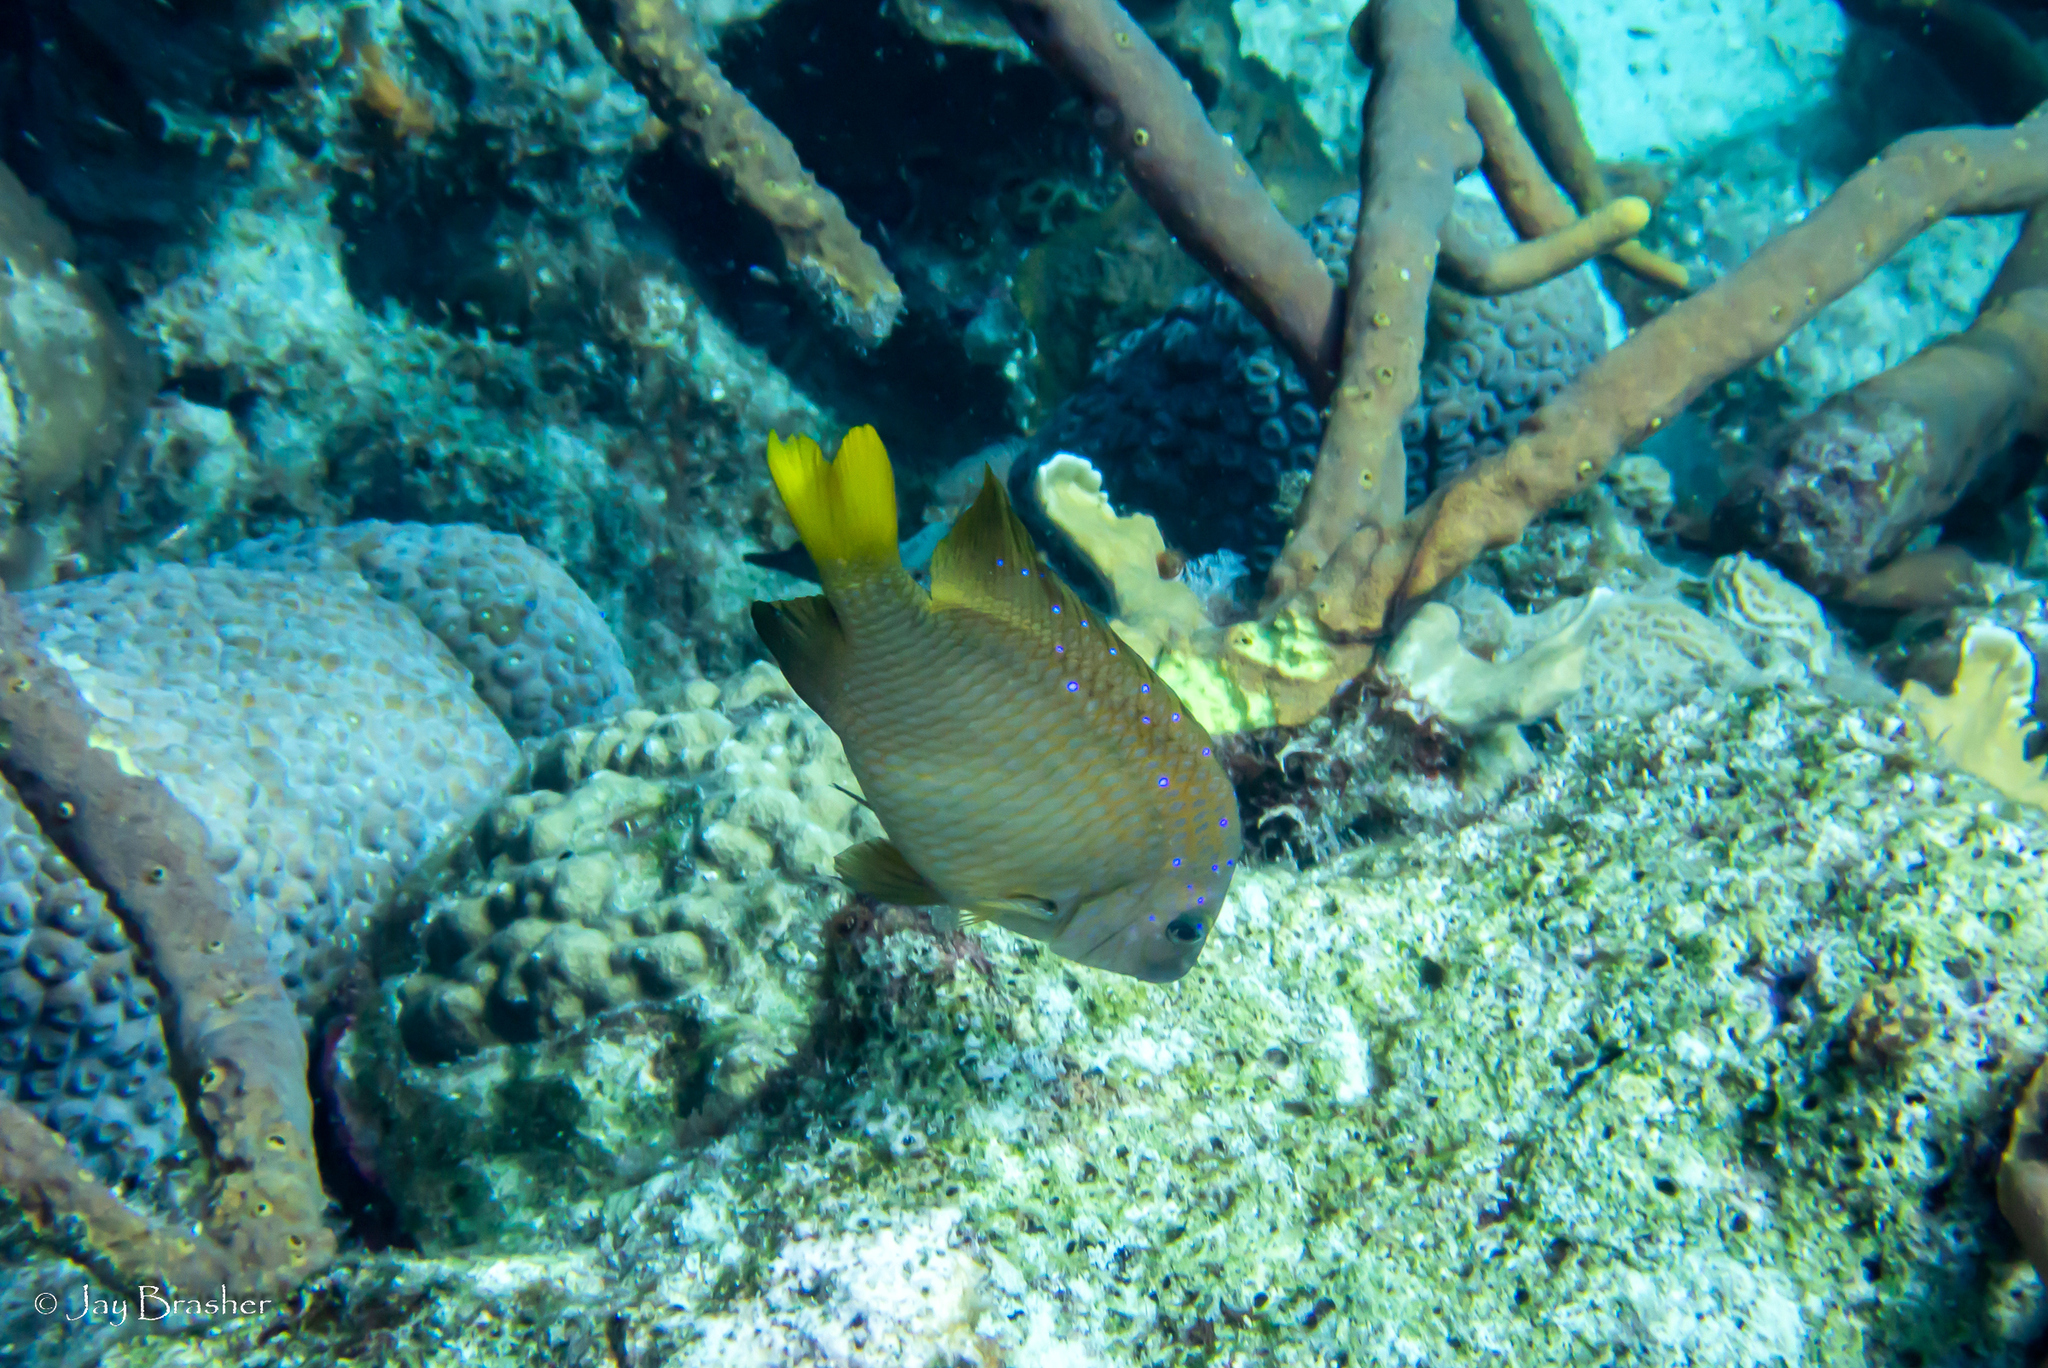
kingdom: Animalia
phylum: Chordata
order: Perciformes
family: Pomacentridae
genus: Microspathodon
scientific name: Microspathodon chrysurus
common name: Yellowtail damselfish
